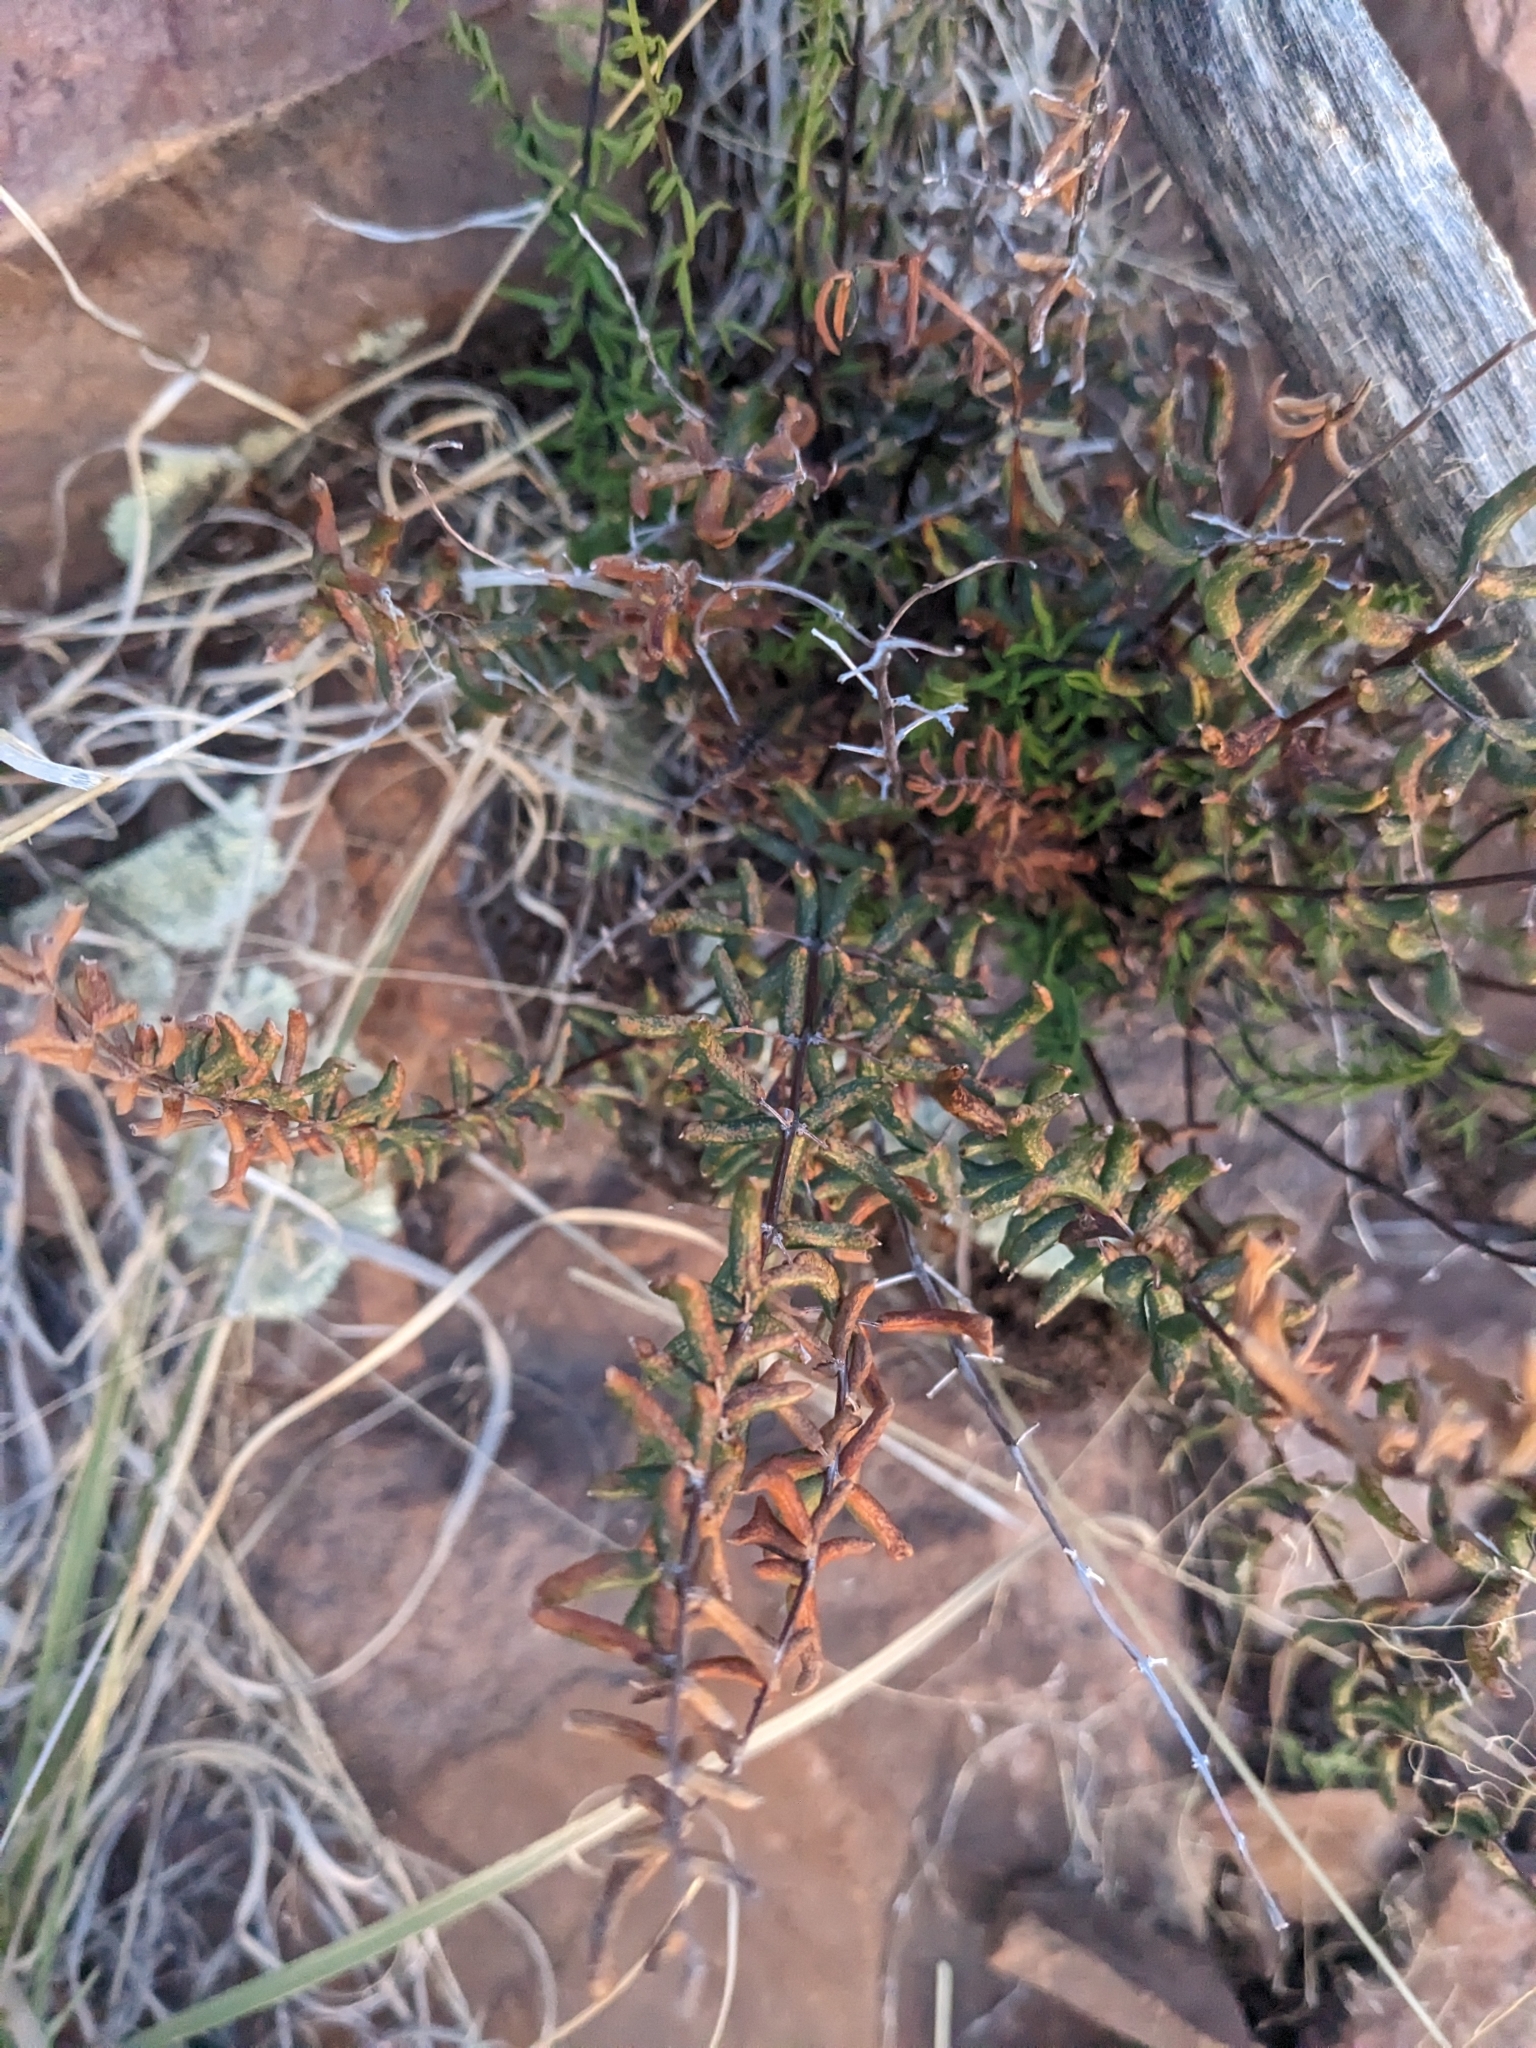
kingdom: Plantae
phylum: Tracheophyta
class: Polypodiopsida
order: Polypodiales
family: Pteridaceae
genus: Pellaea
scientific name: Pellaea wrightiana
